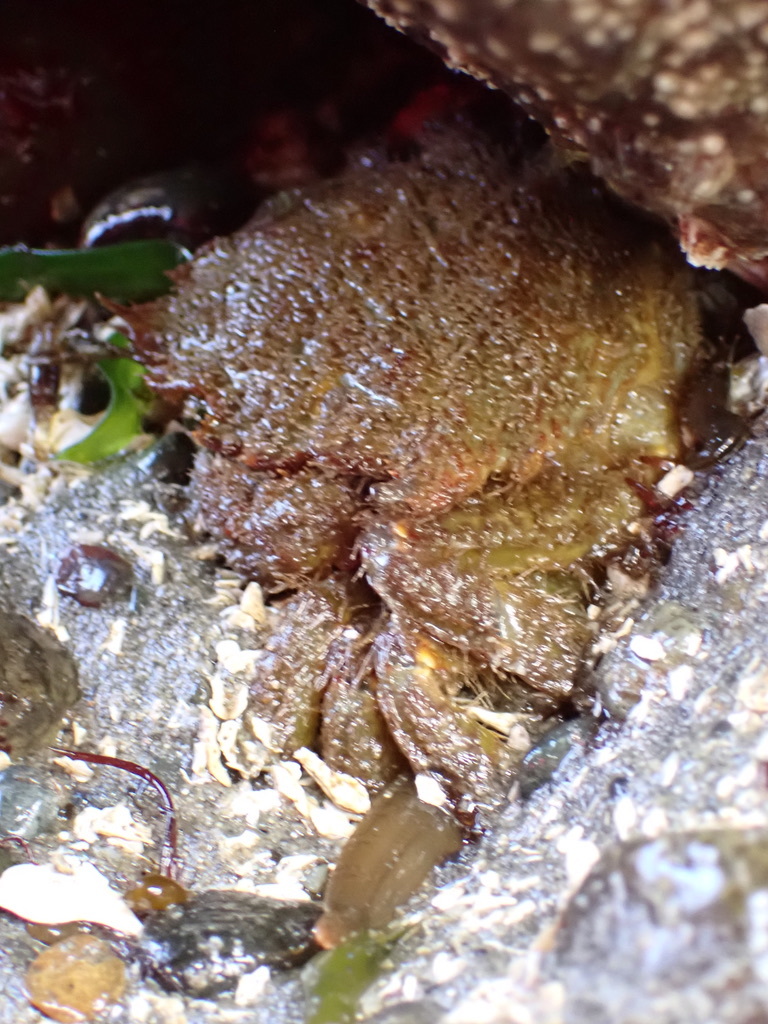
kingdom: Animalia
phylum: Arthropoda
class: Malacostraca
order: Decapoda
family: Cheiragonidae
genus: Telmessus
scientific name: Telmessus cheiragonus
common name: Helmet crab
